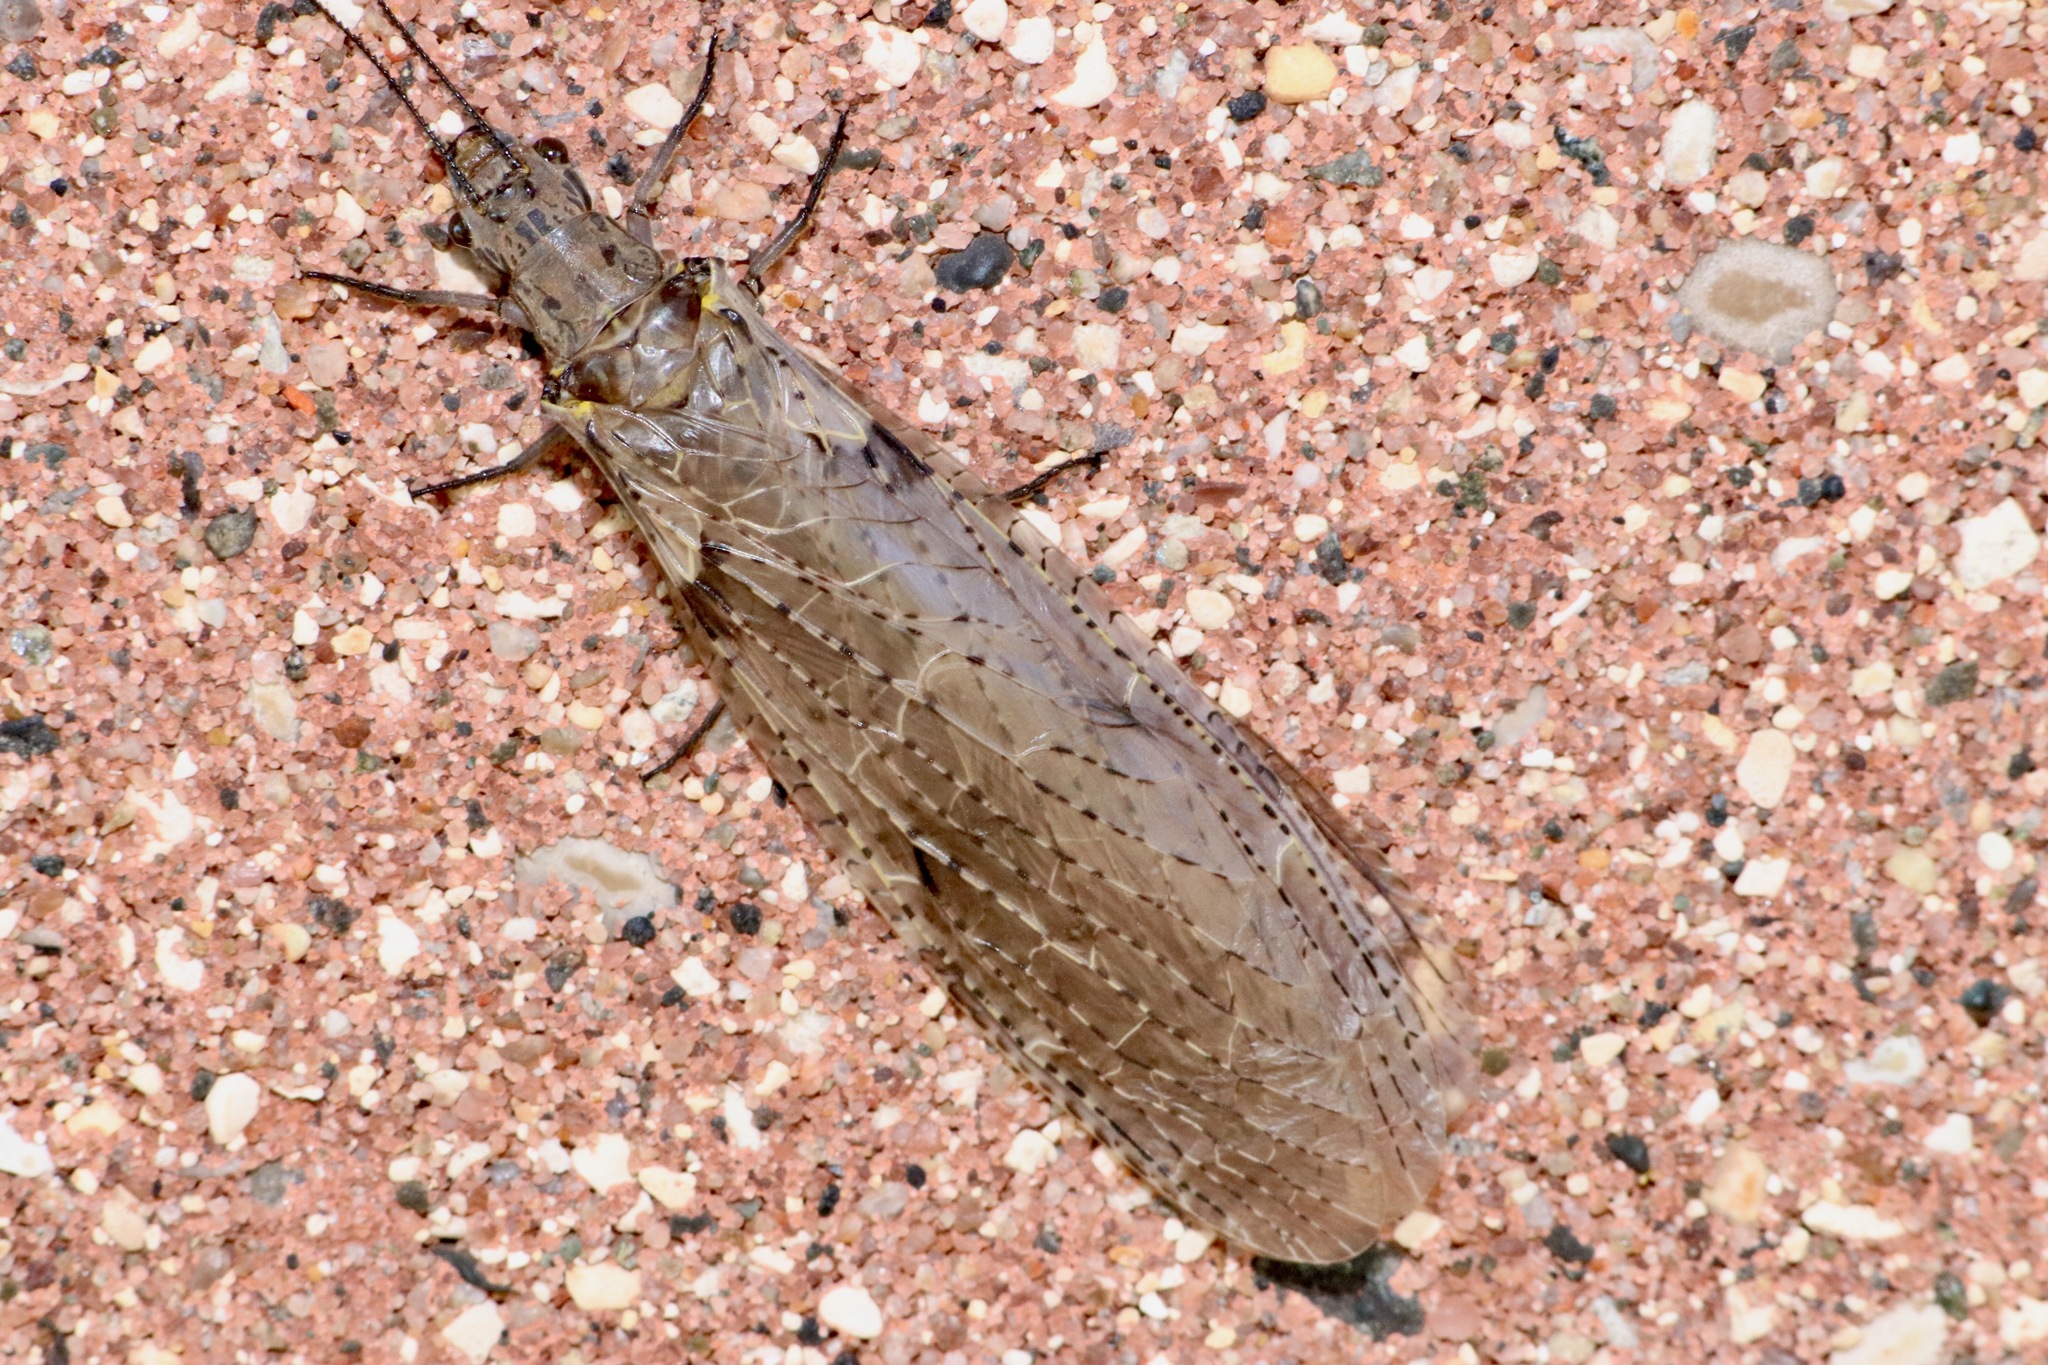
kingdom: Animalia
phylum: Arthropoda
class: Insecta
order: Megaloptera
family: Corydalidae
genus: Chauliodes
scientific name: Chauliodes rastricornis
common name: Spring fishfly
